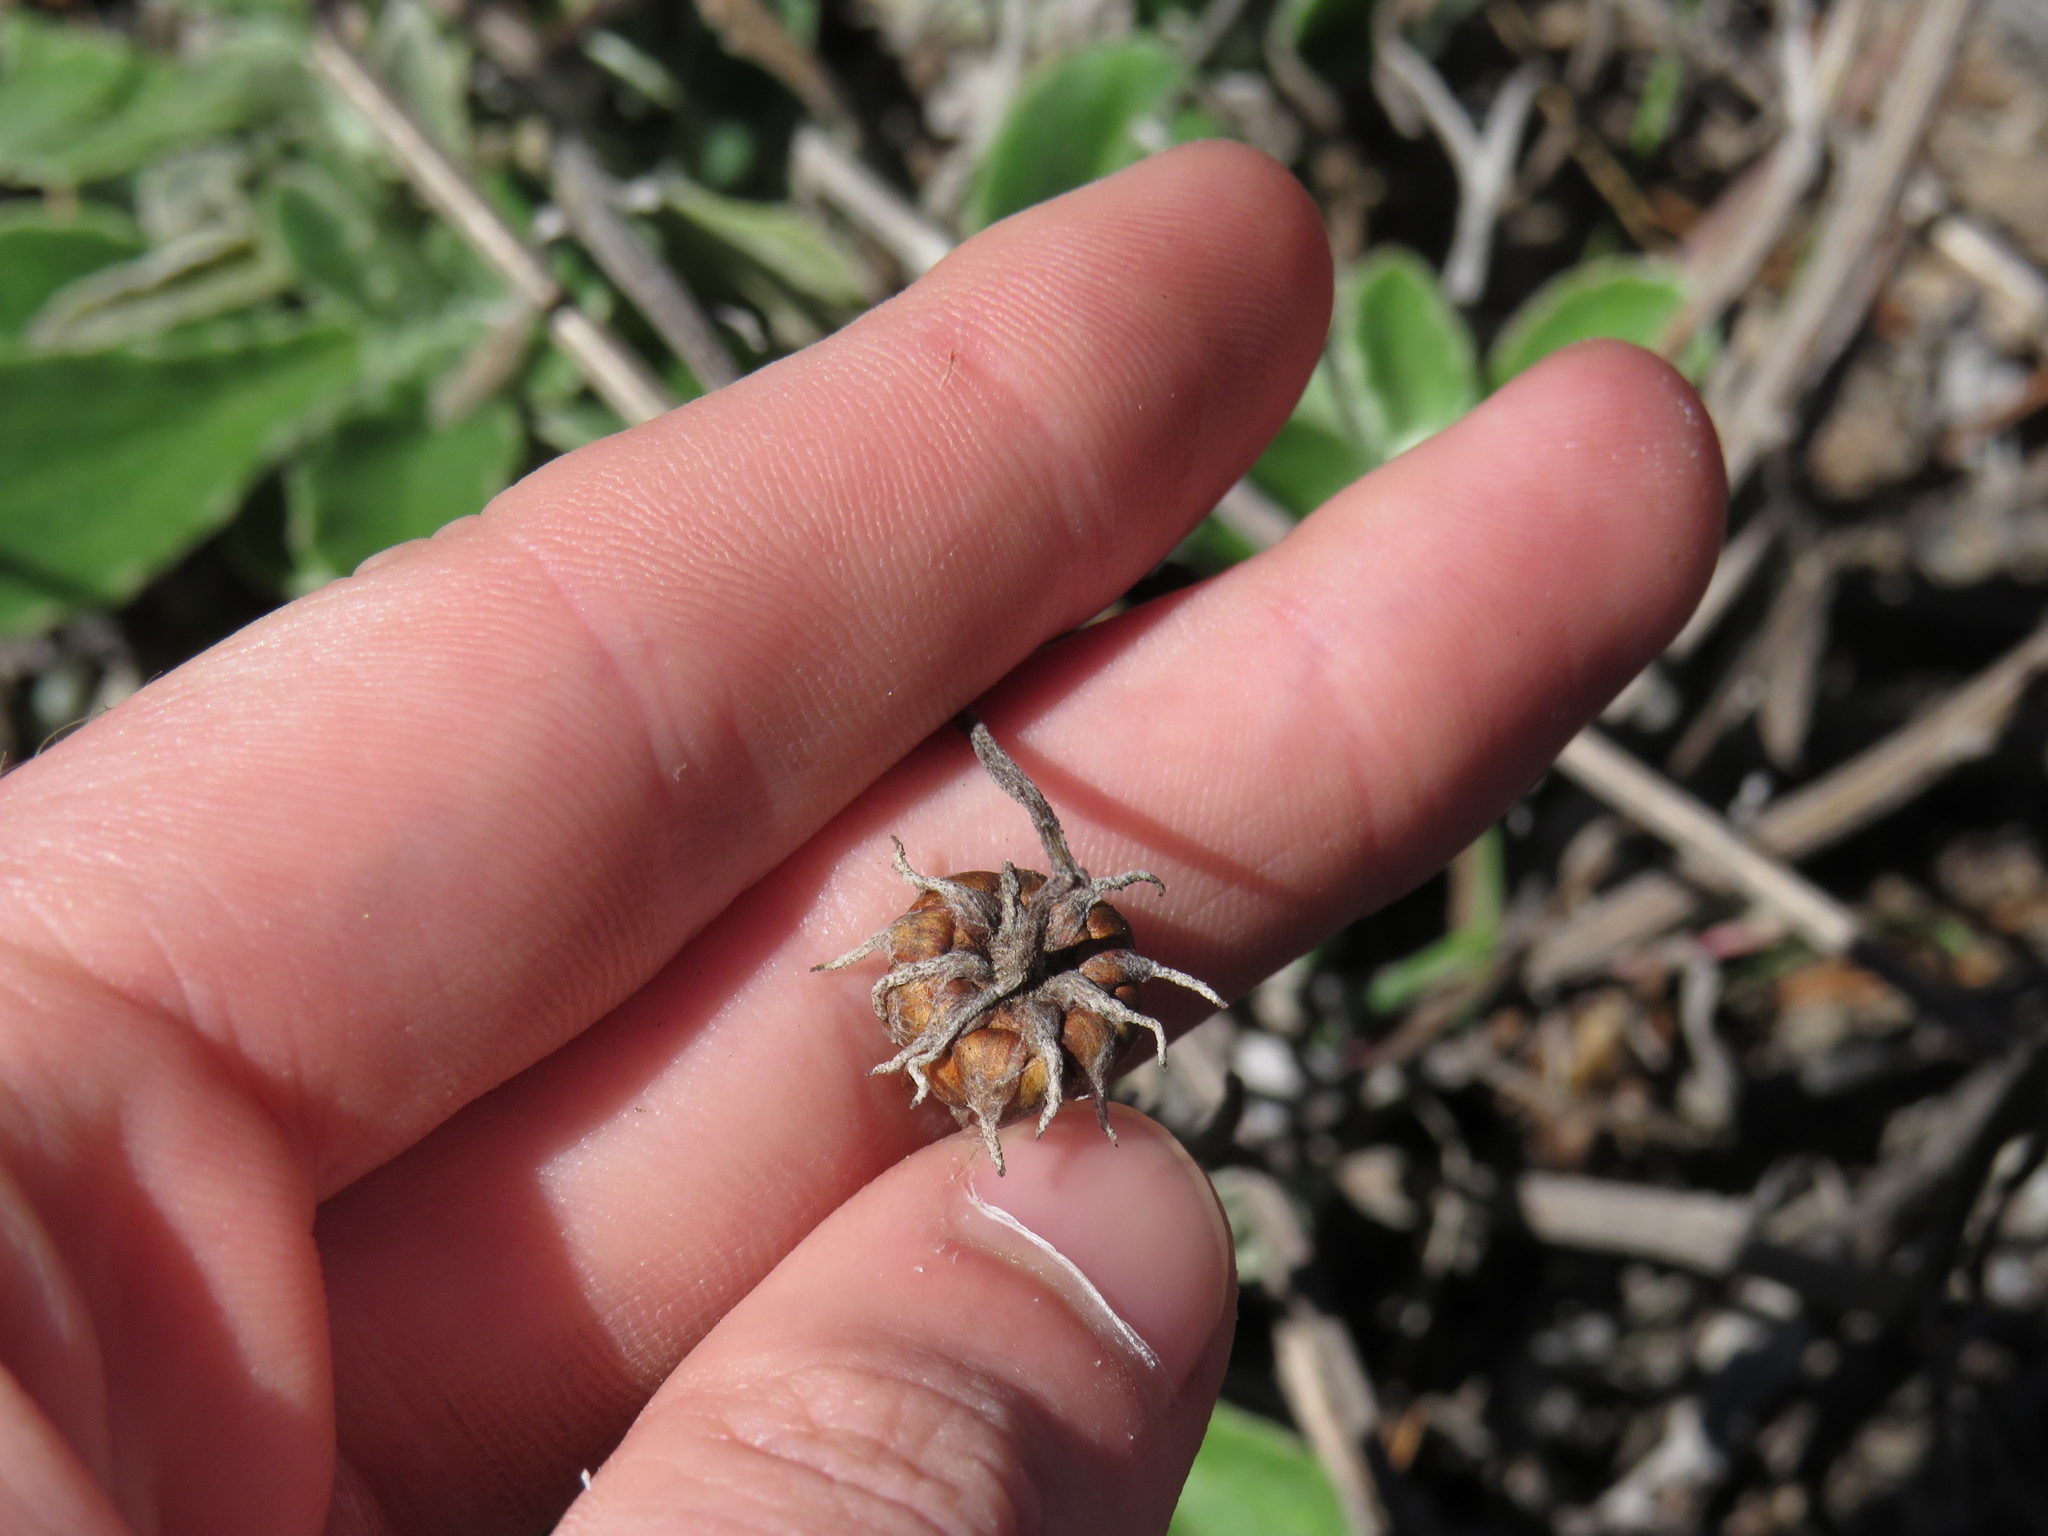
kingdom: Plantae
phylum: Tracheophyta
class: Magnoliopsida
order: Asterales
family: Asteraceae
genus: Arctotis
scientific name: Arctotis bellidifolia
